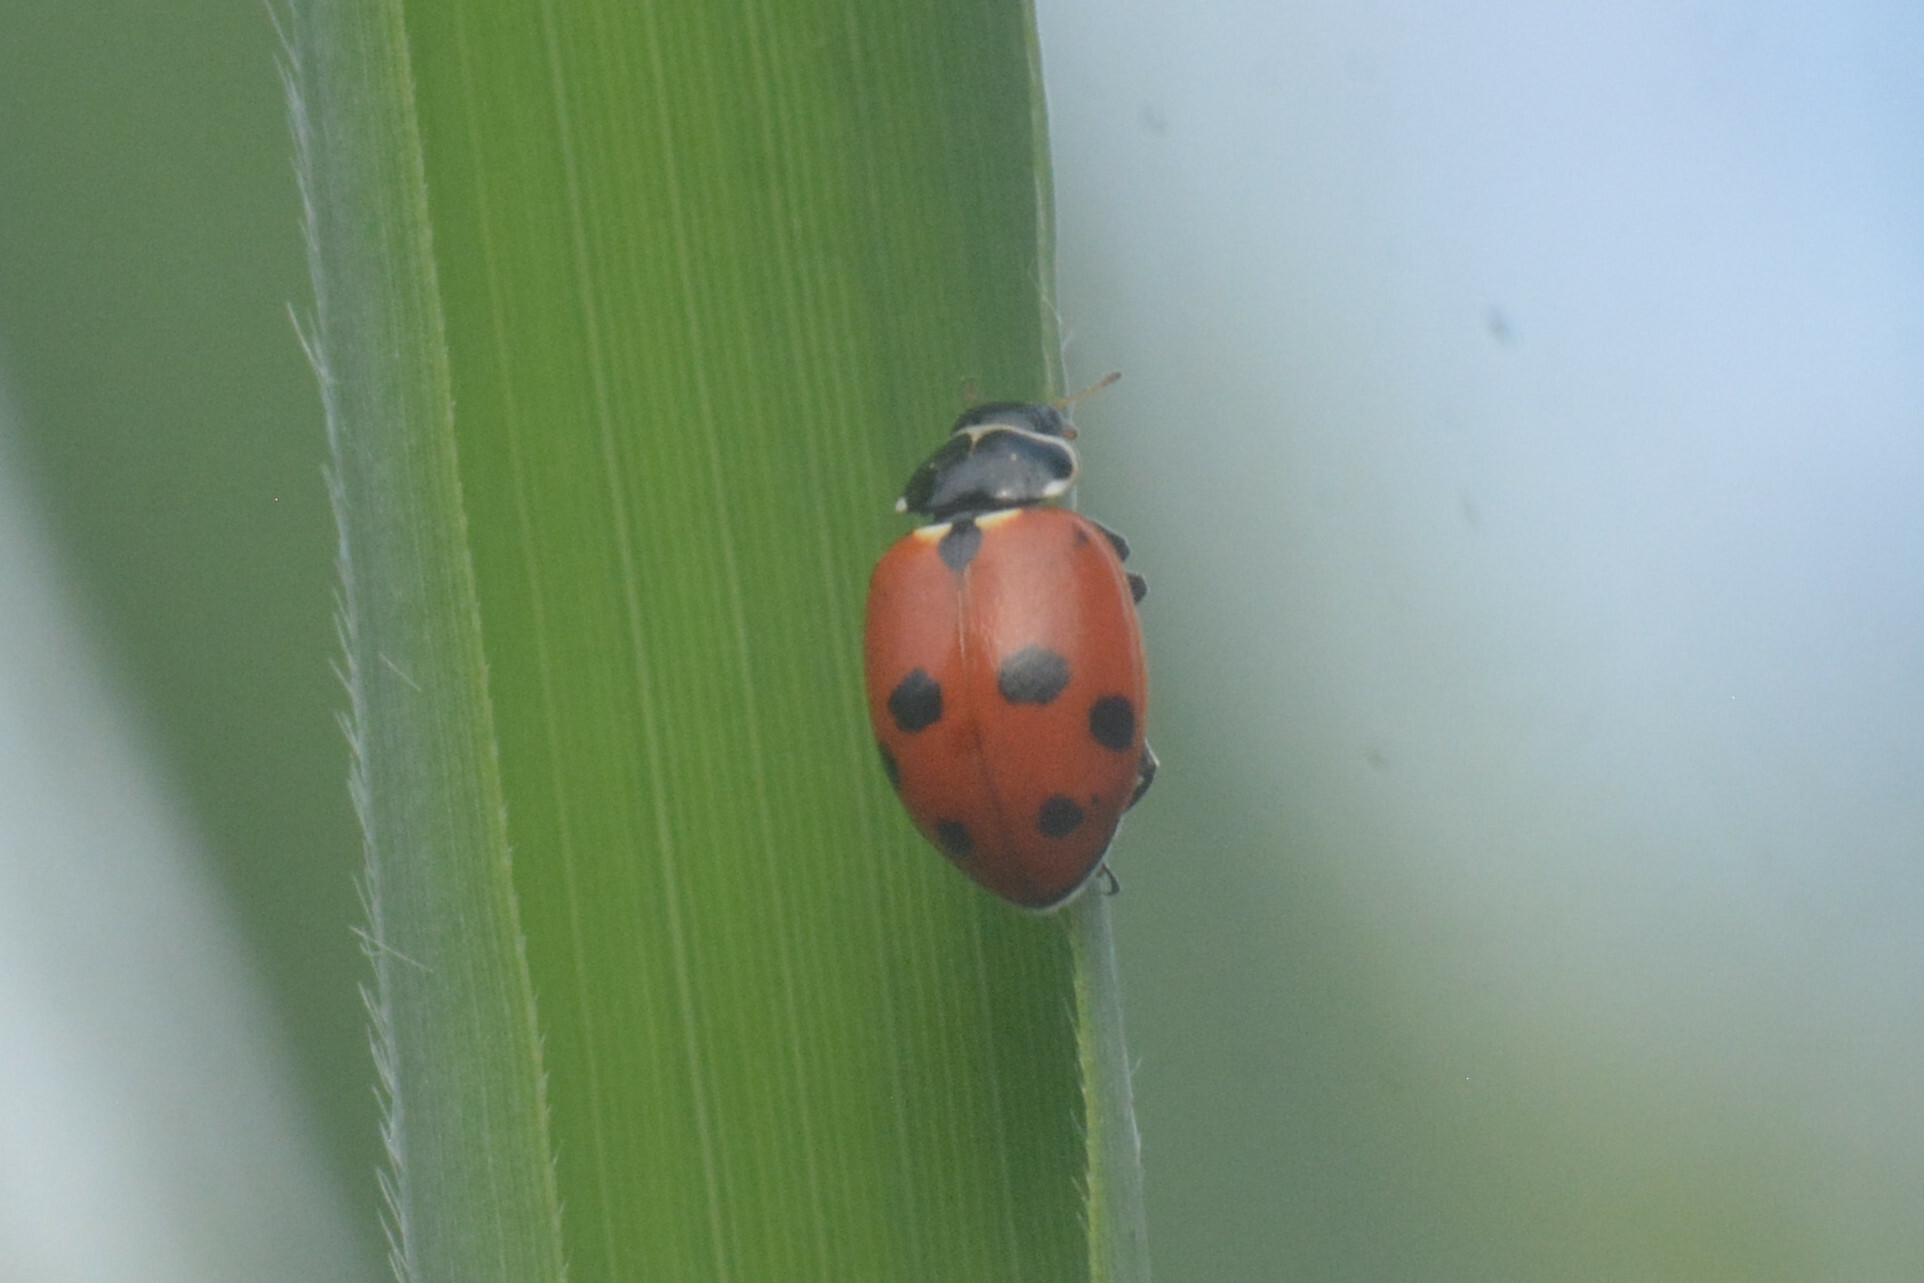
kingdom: Animalia
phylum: Arthropoda
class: Insecta
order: Coleoptera
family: Coccinellidae
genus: Hippodamia
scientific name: Hippodamia variegata
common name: Ladybird beetle
